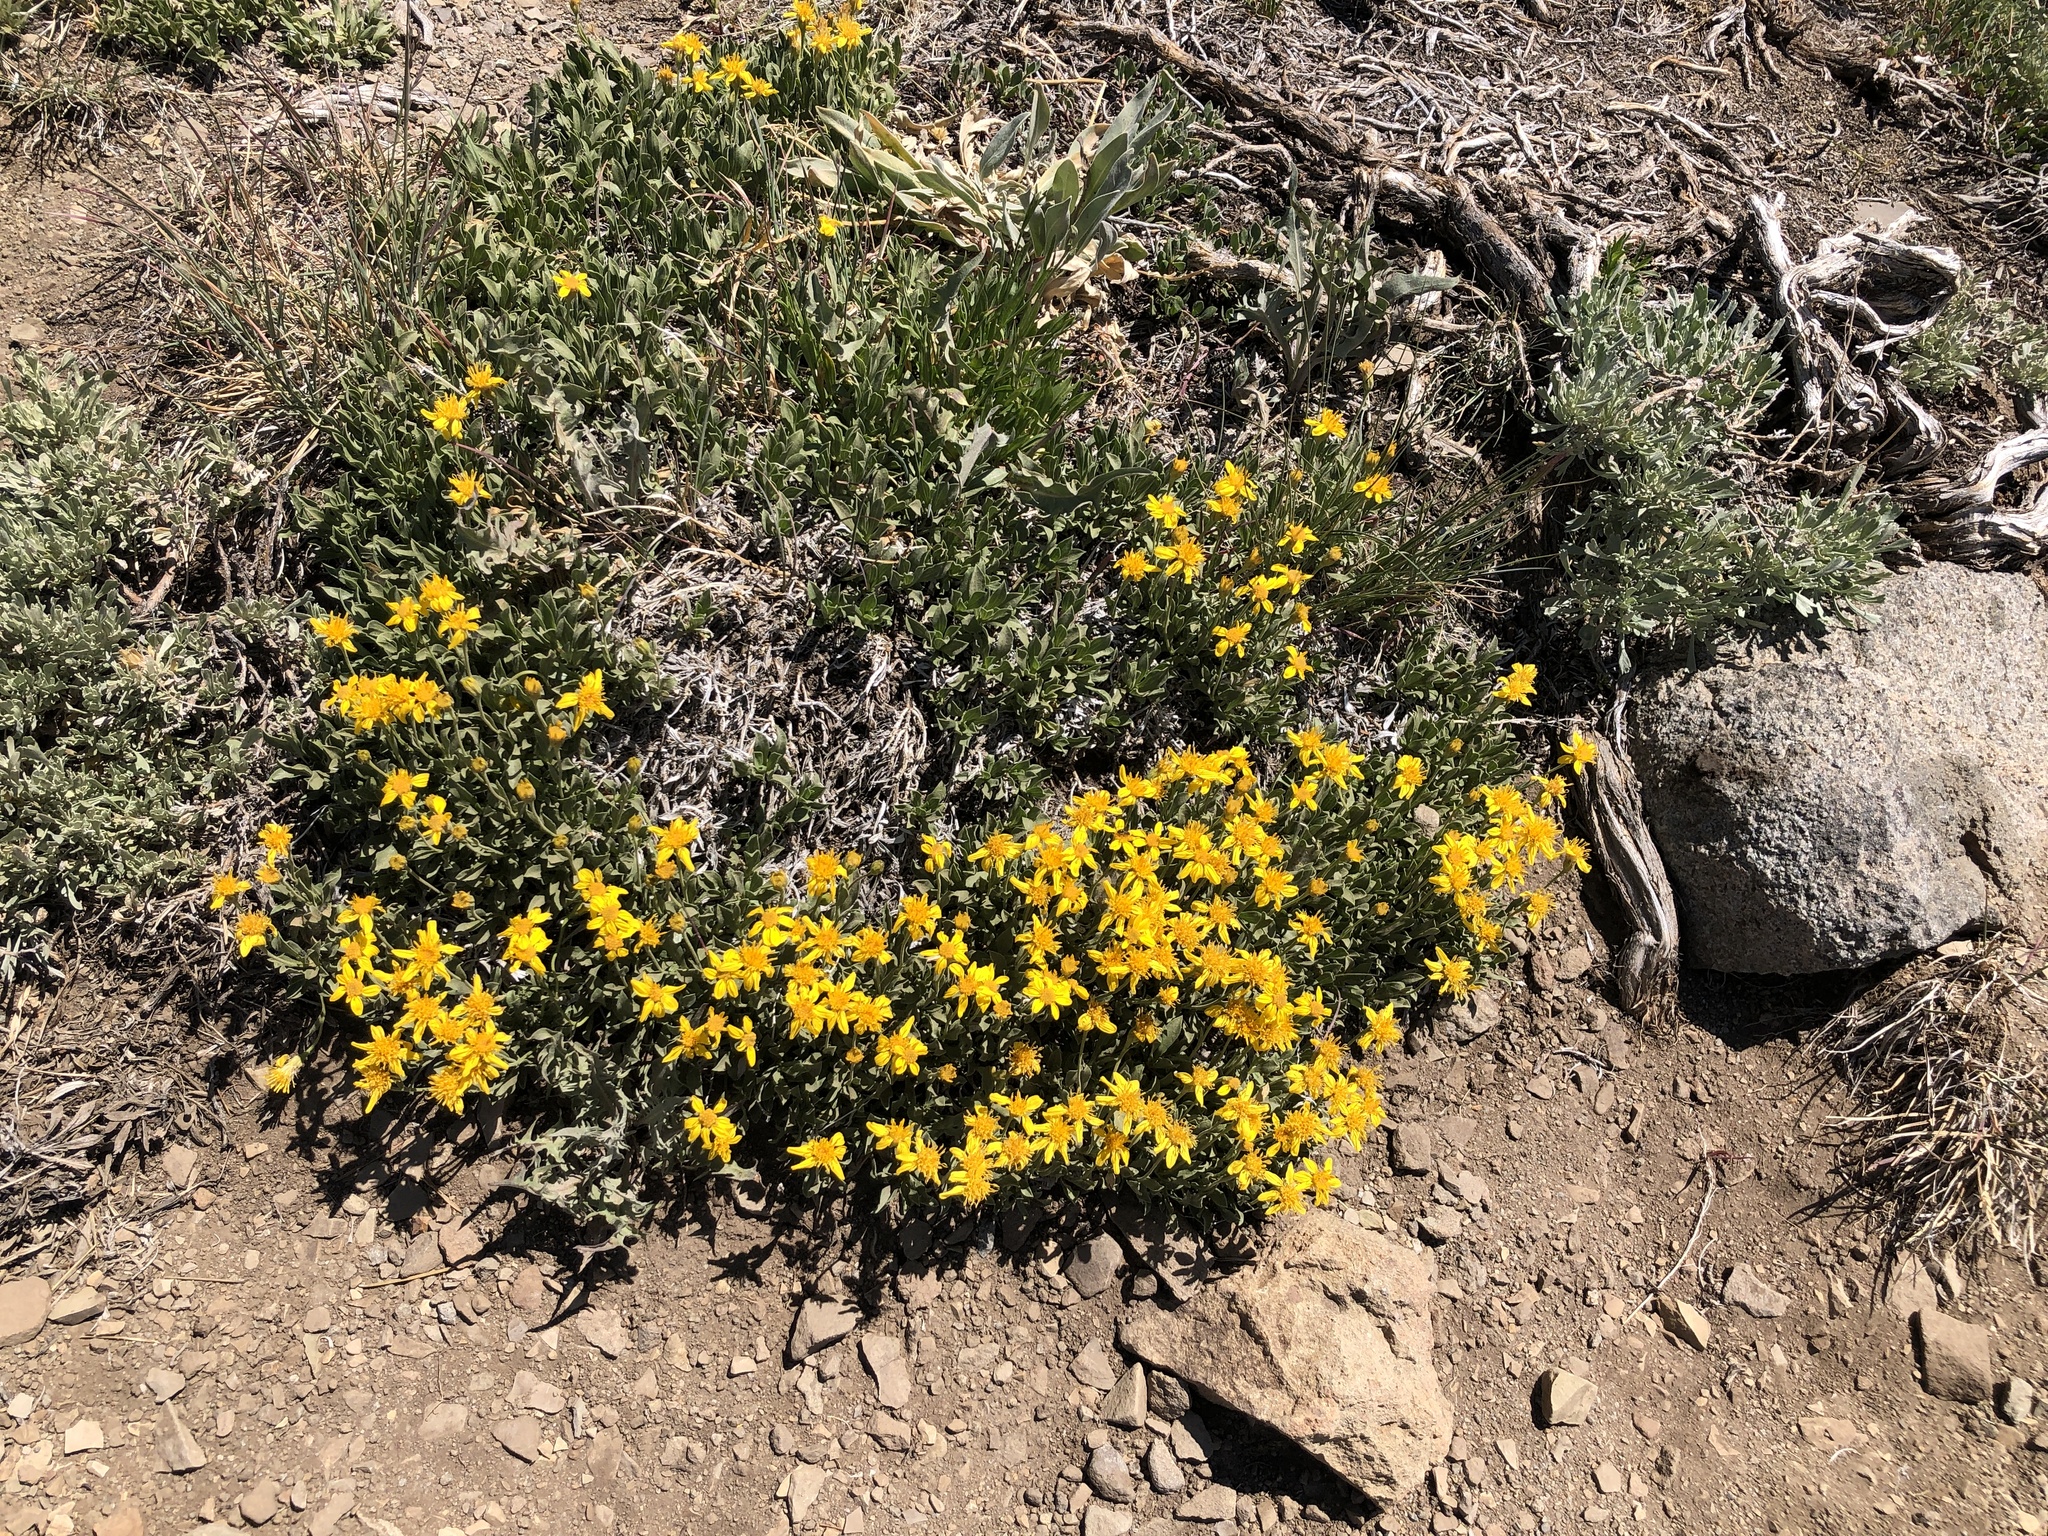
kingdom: Plantae
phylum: Tracheophyta
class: Magnoliopsida
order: Asterales
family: Asteraceae
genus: Stenotus
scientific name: Stenotus acaulis
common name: Stemless goldenweed
